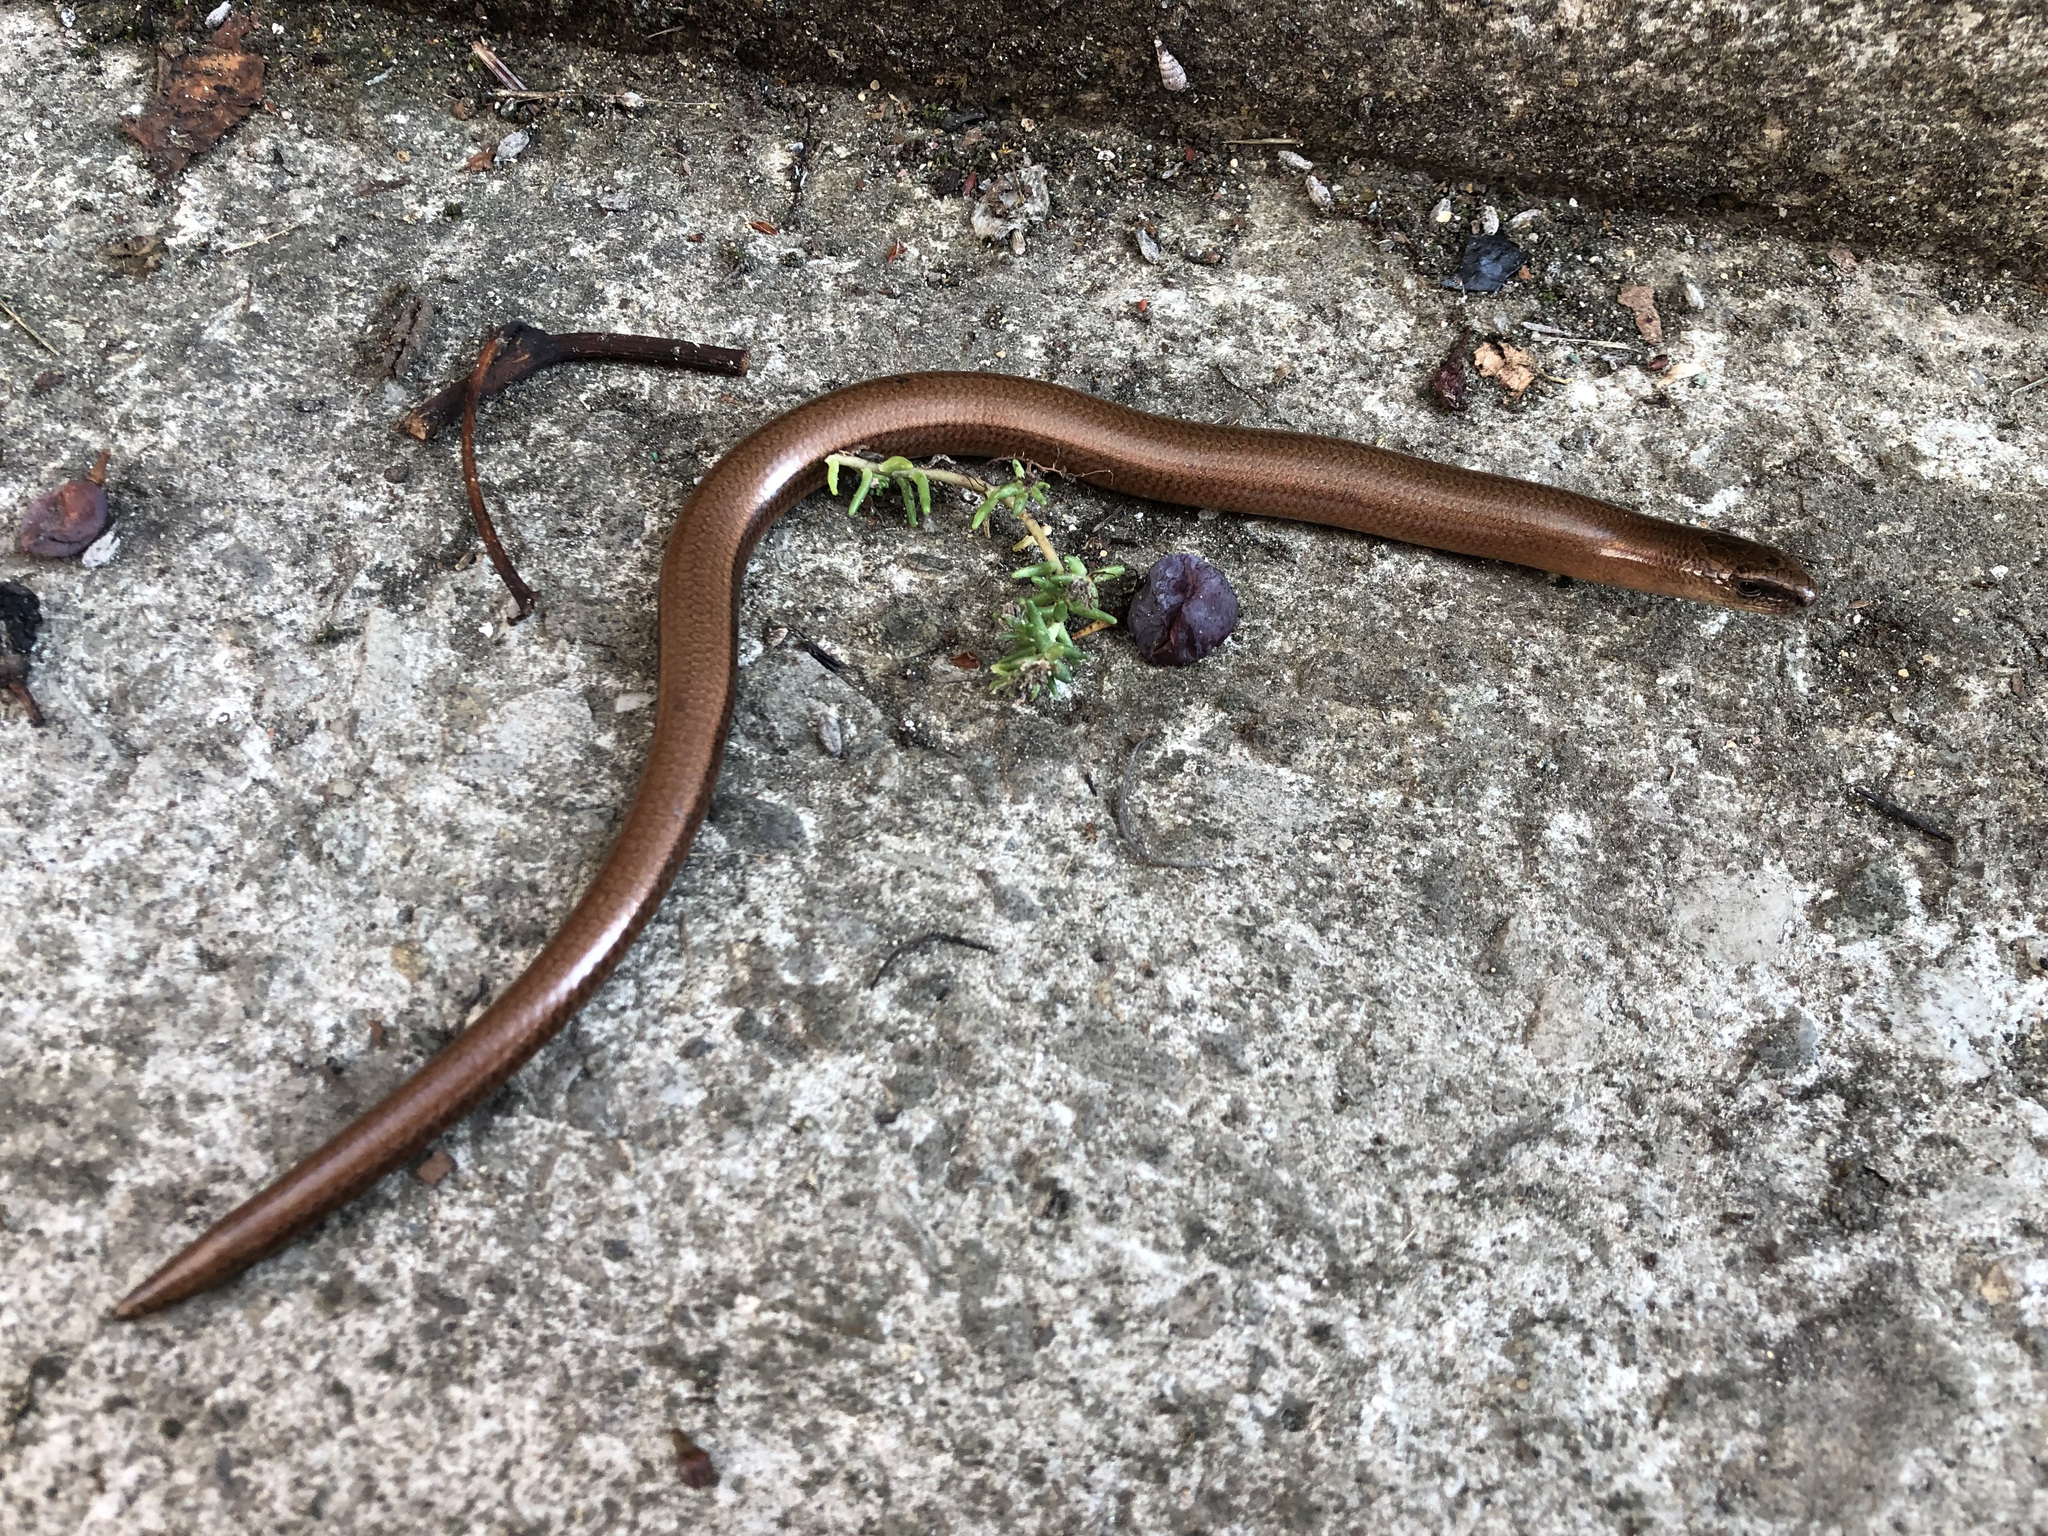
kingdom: Animalia
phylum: Chordata
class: Squamata
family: Anguidae
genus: Anguis
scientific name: Anguis fragilis
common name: Slow worm
